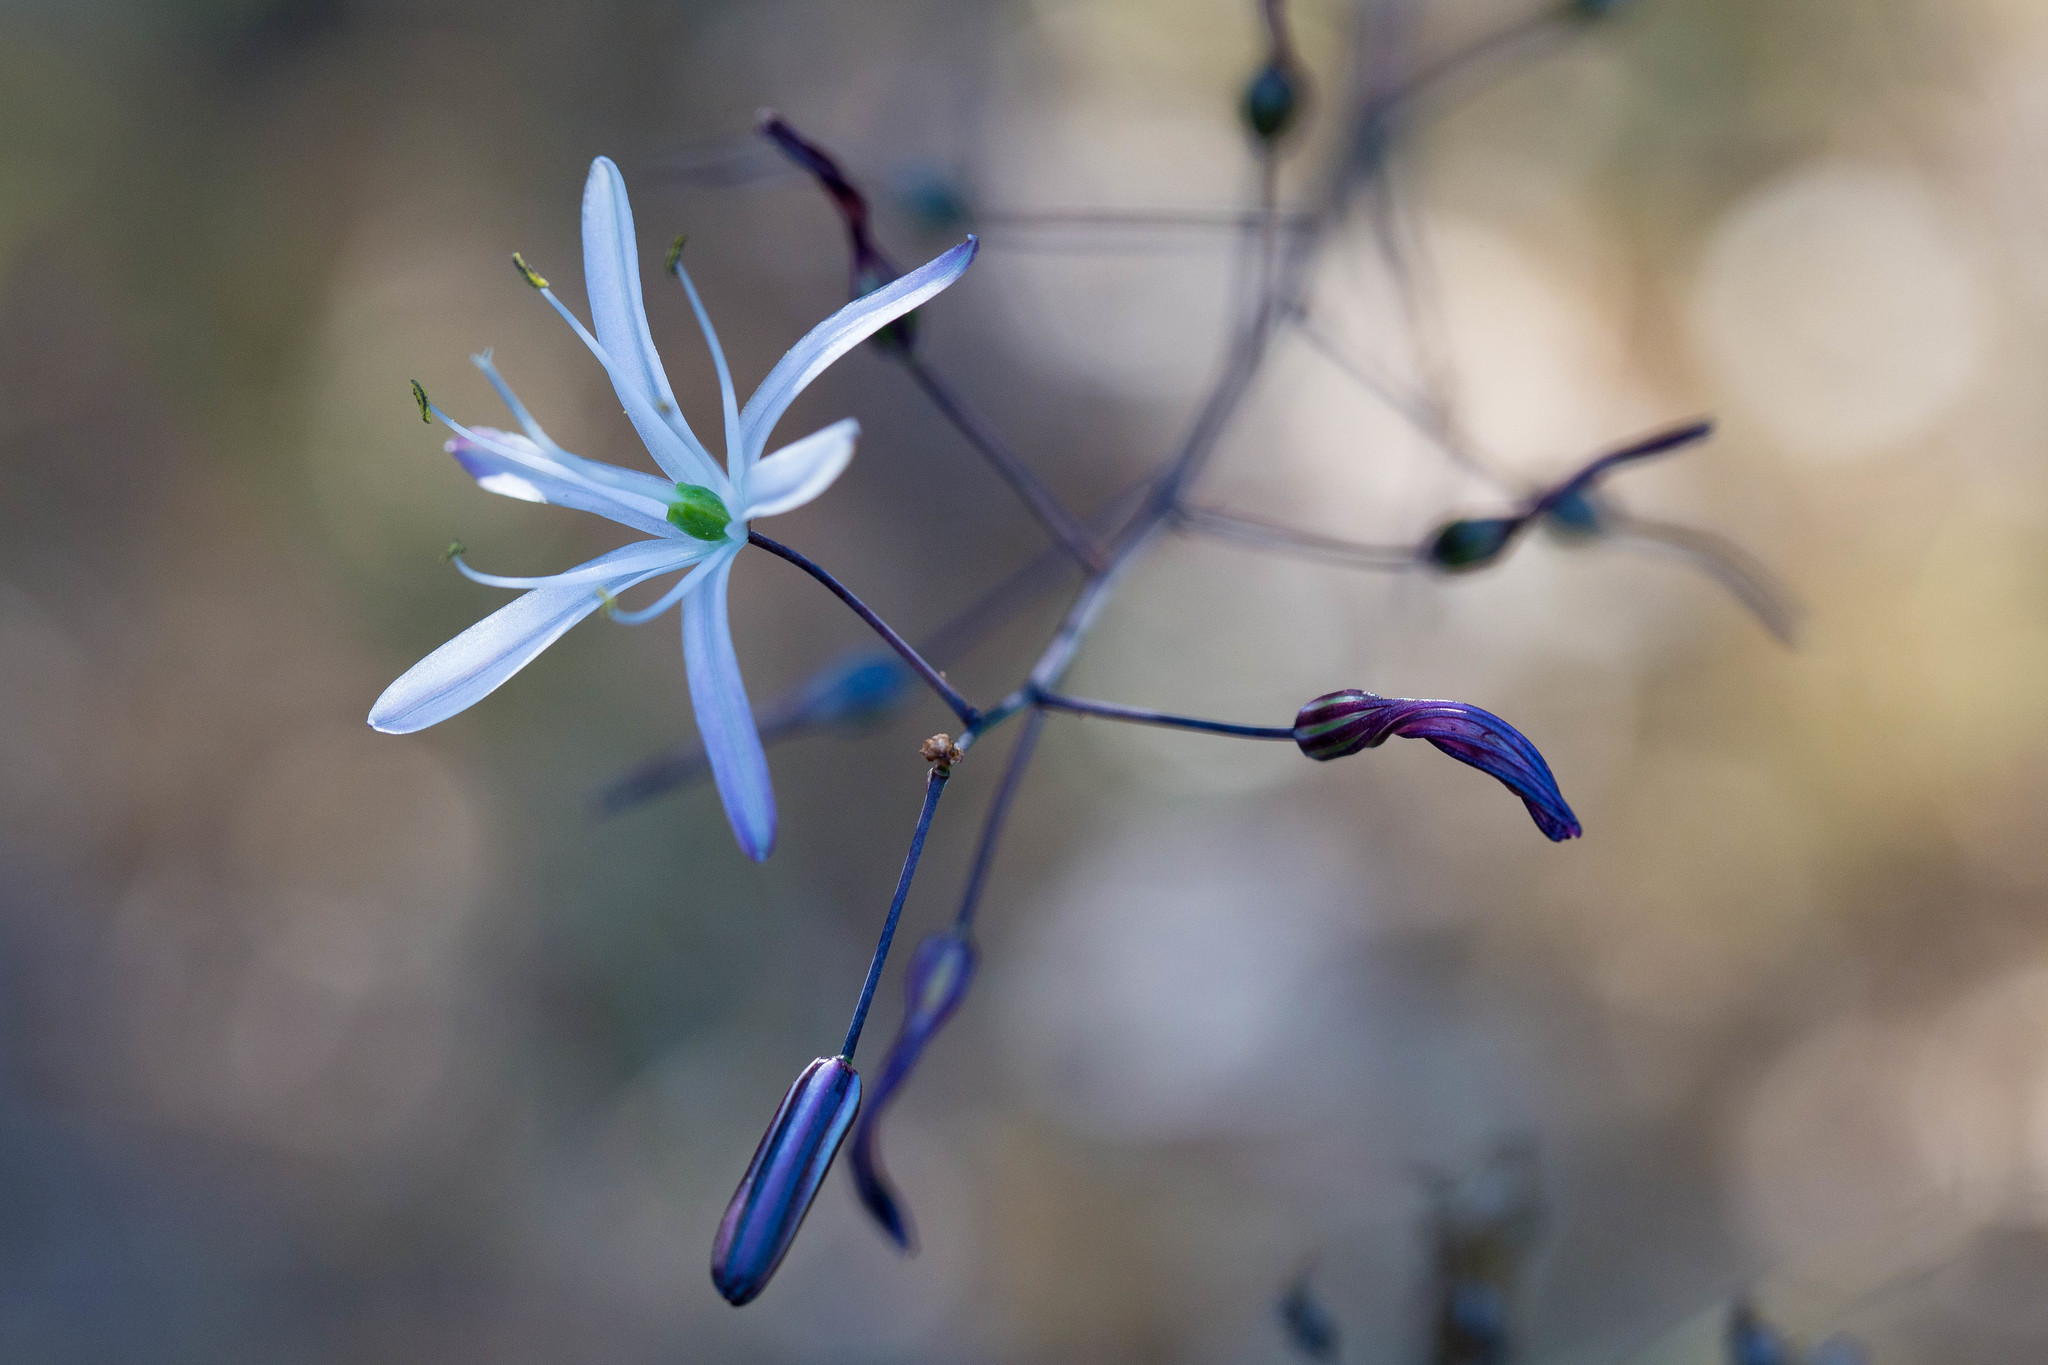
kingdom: Plantae
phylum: Tracheophyta
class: Liliopsida
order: Asparagales
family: Asparagaceae
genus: Chlorogalum
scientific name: Chlorogalum pomeridianum
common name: Amole
